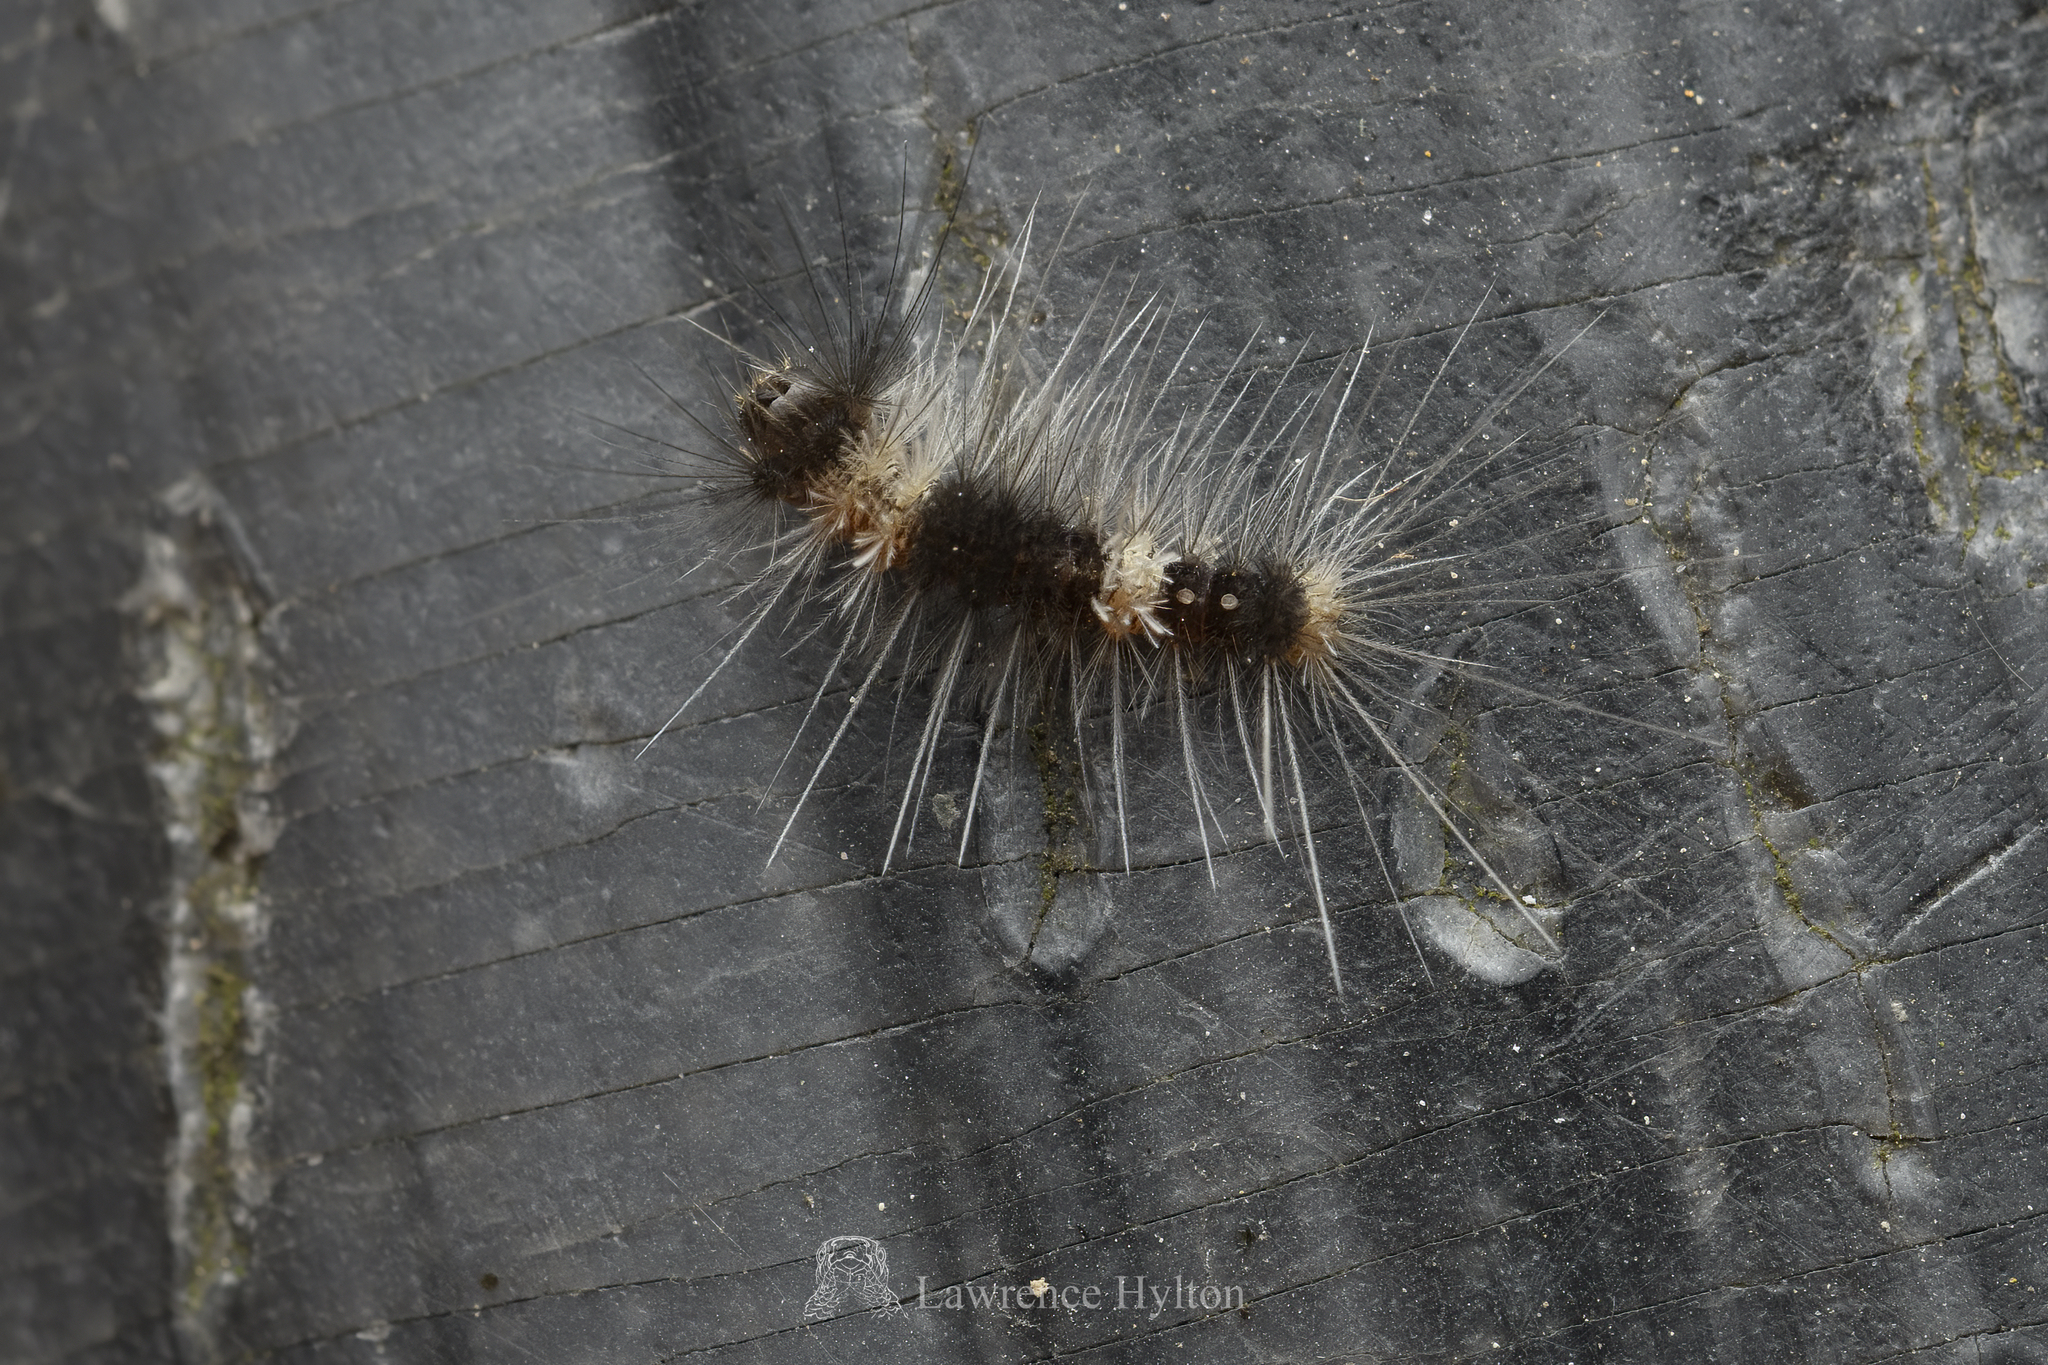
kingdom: Animalia
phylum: Arthropoda
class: Insecta
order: Lepidoptera
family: Erebidae
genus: Dasychira
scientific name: Dasychira chekiangensis
